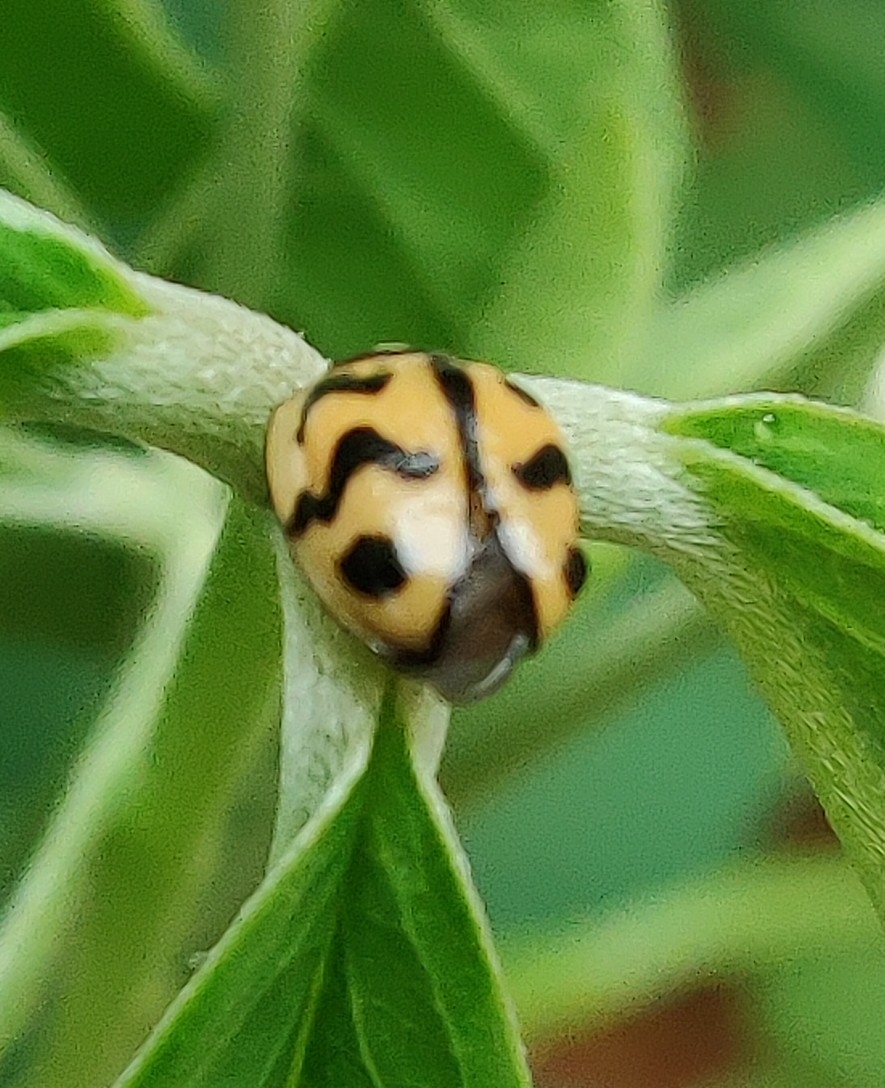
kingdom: Animalia
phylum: Arthropoda
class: Insecta
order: Coleoptera
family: Coccinellidae
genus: Cheilomenes
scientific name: Cheilomenes sexmaculata
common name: Ladybird beetle
